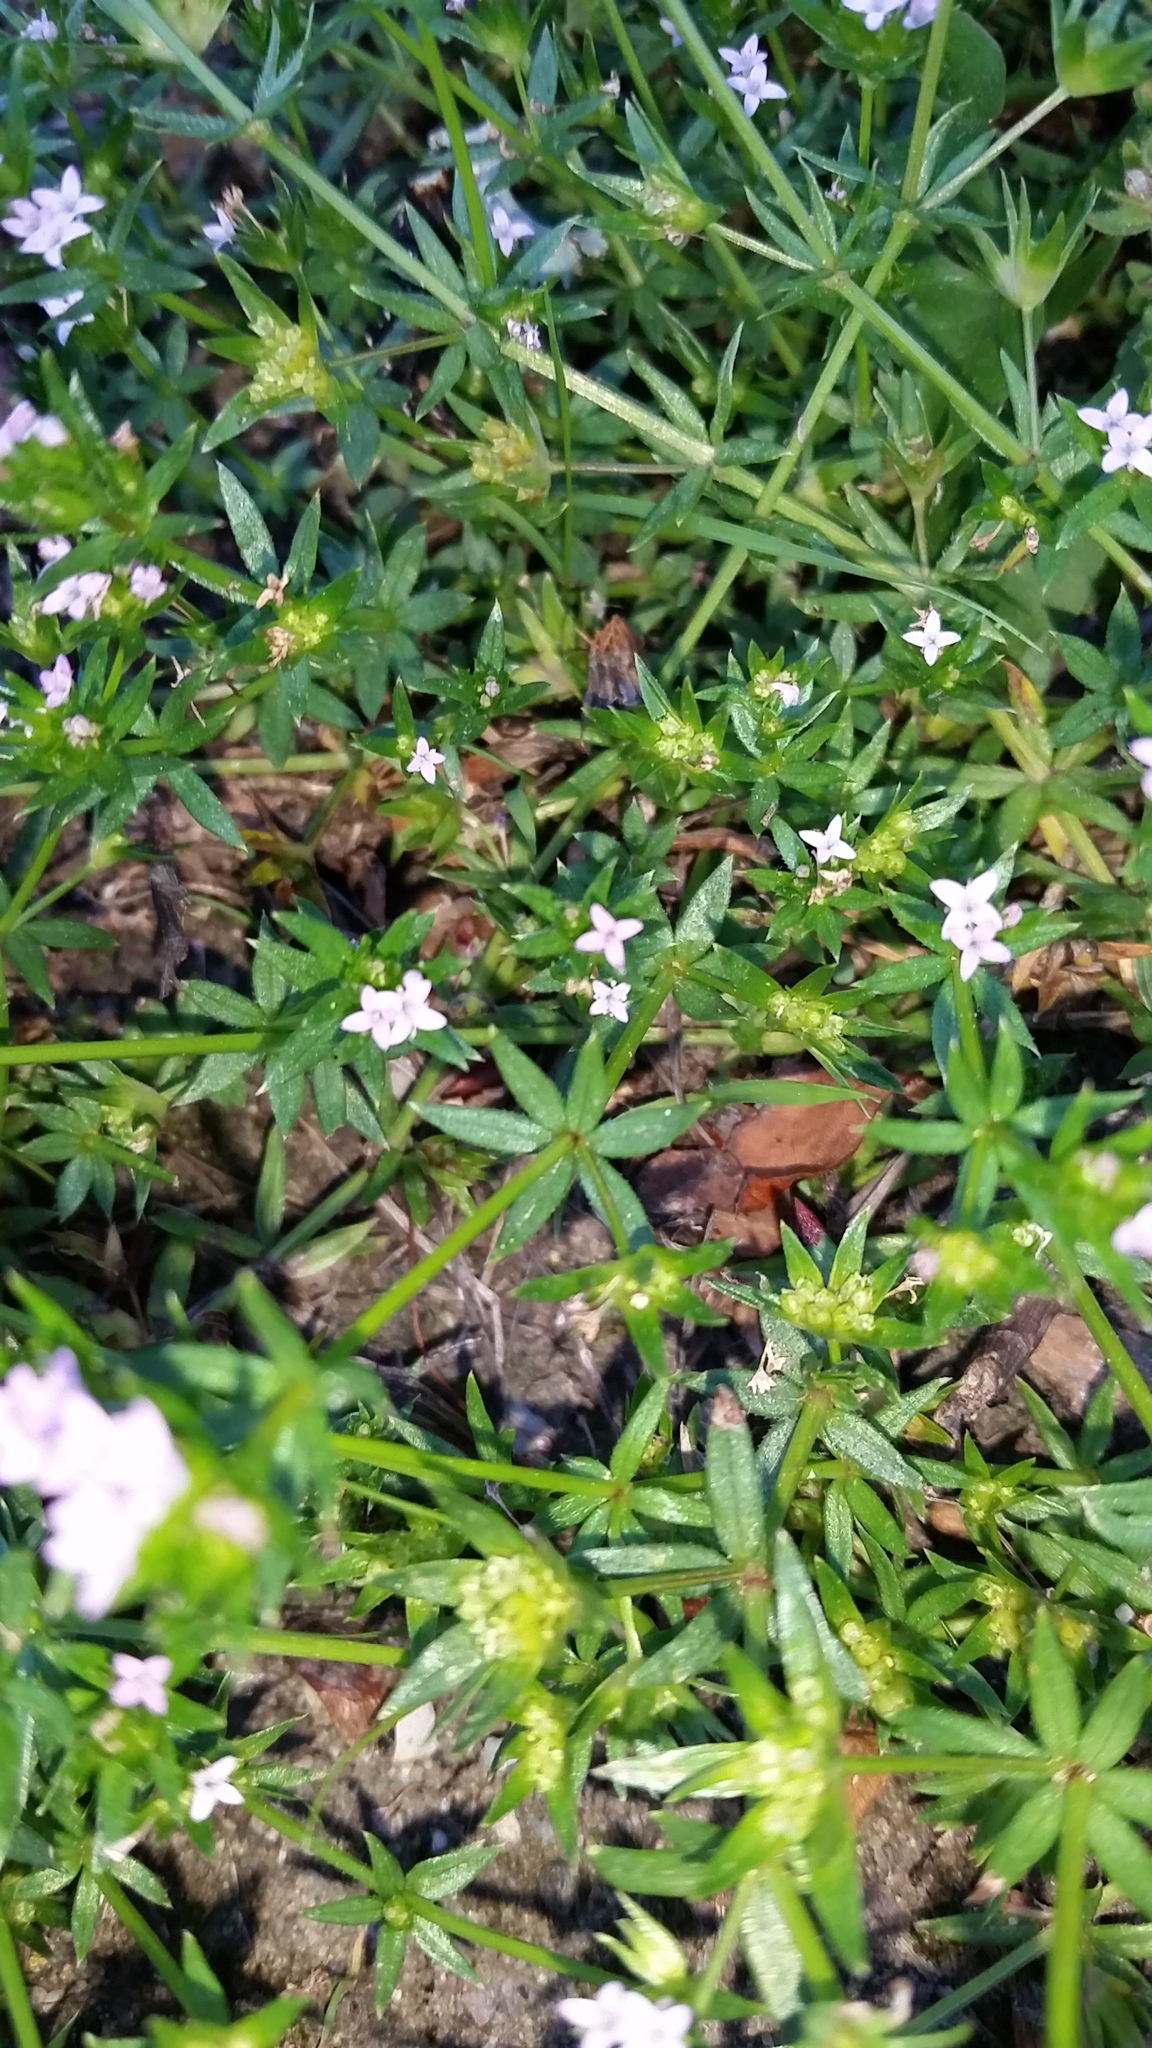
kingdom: Plantae
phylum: Tracheophyta
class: Magnoliopsida
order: Gentianales
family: Rubiaceae
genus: Sherardia
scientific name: Sherardia arvensis
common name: Field madder
